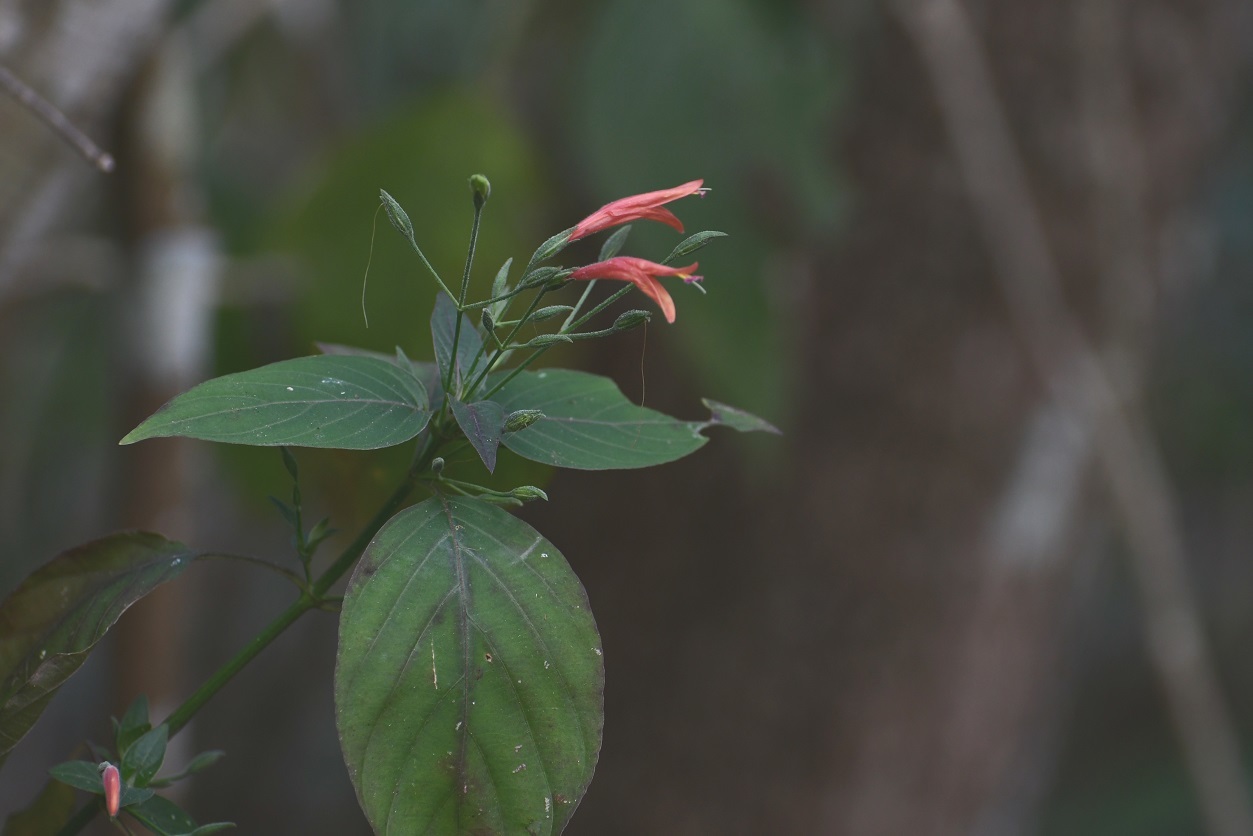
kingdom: Plantae
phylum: Tracheophyta
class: Magnoliopsida
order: Lamiales
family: Acanthaceae
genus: Dicliptera
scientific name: Dicliptera sciadephora
